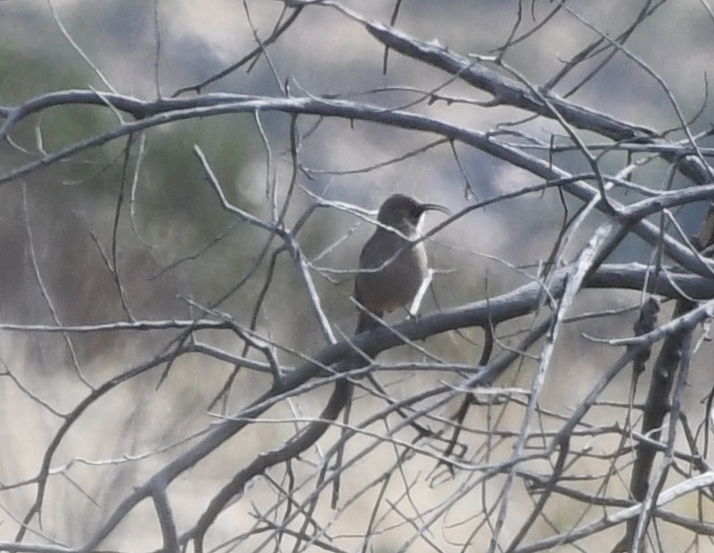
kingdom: Animalia
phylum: Chordata
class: Aves
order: Passeriformes
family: Mimidae
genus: Toxostoma
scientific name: Toxostoma crissale
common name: Crissal thrasher
